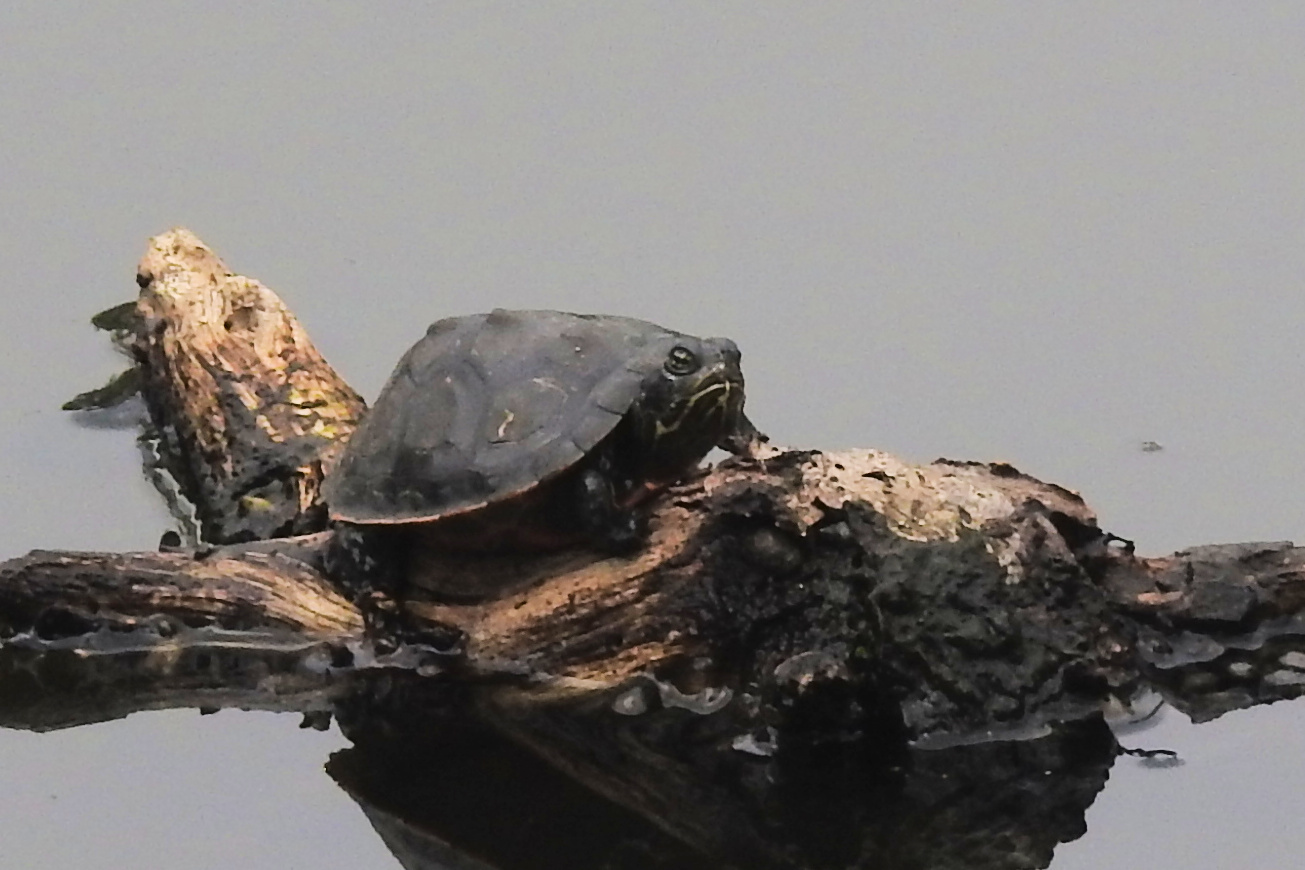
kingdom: Animalia
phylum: Chordata
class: Testudines
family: Emydidae
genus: Pseudemys
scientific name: Pseudemys rubriventris
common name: American red-bellied turtle
